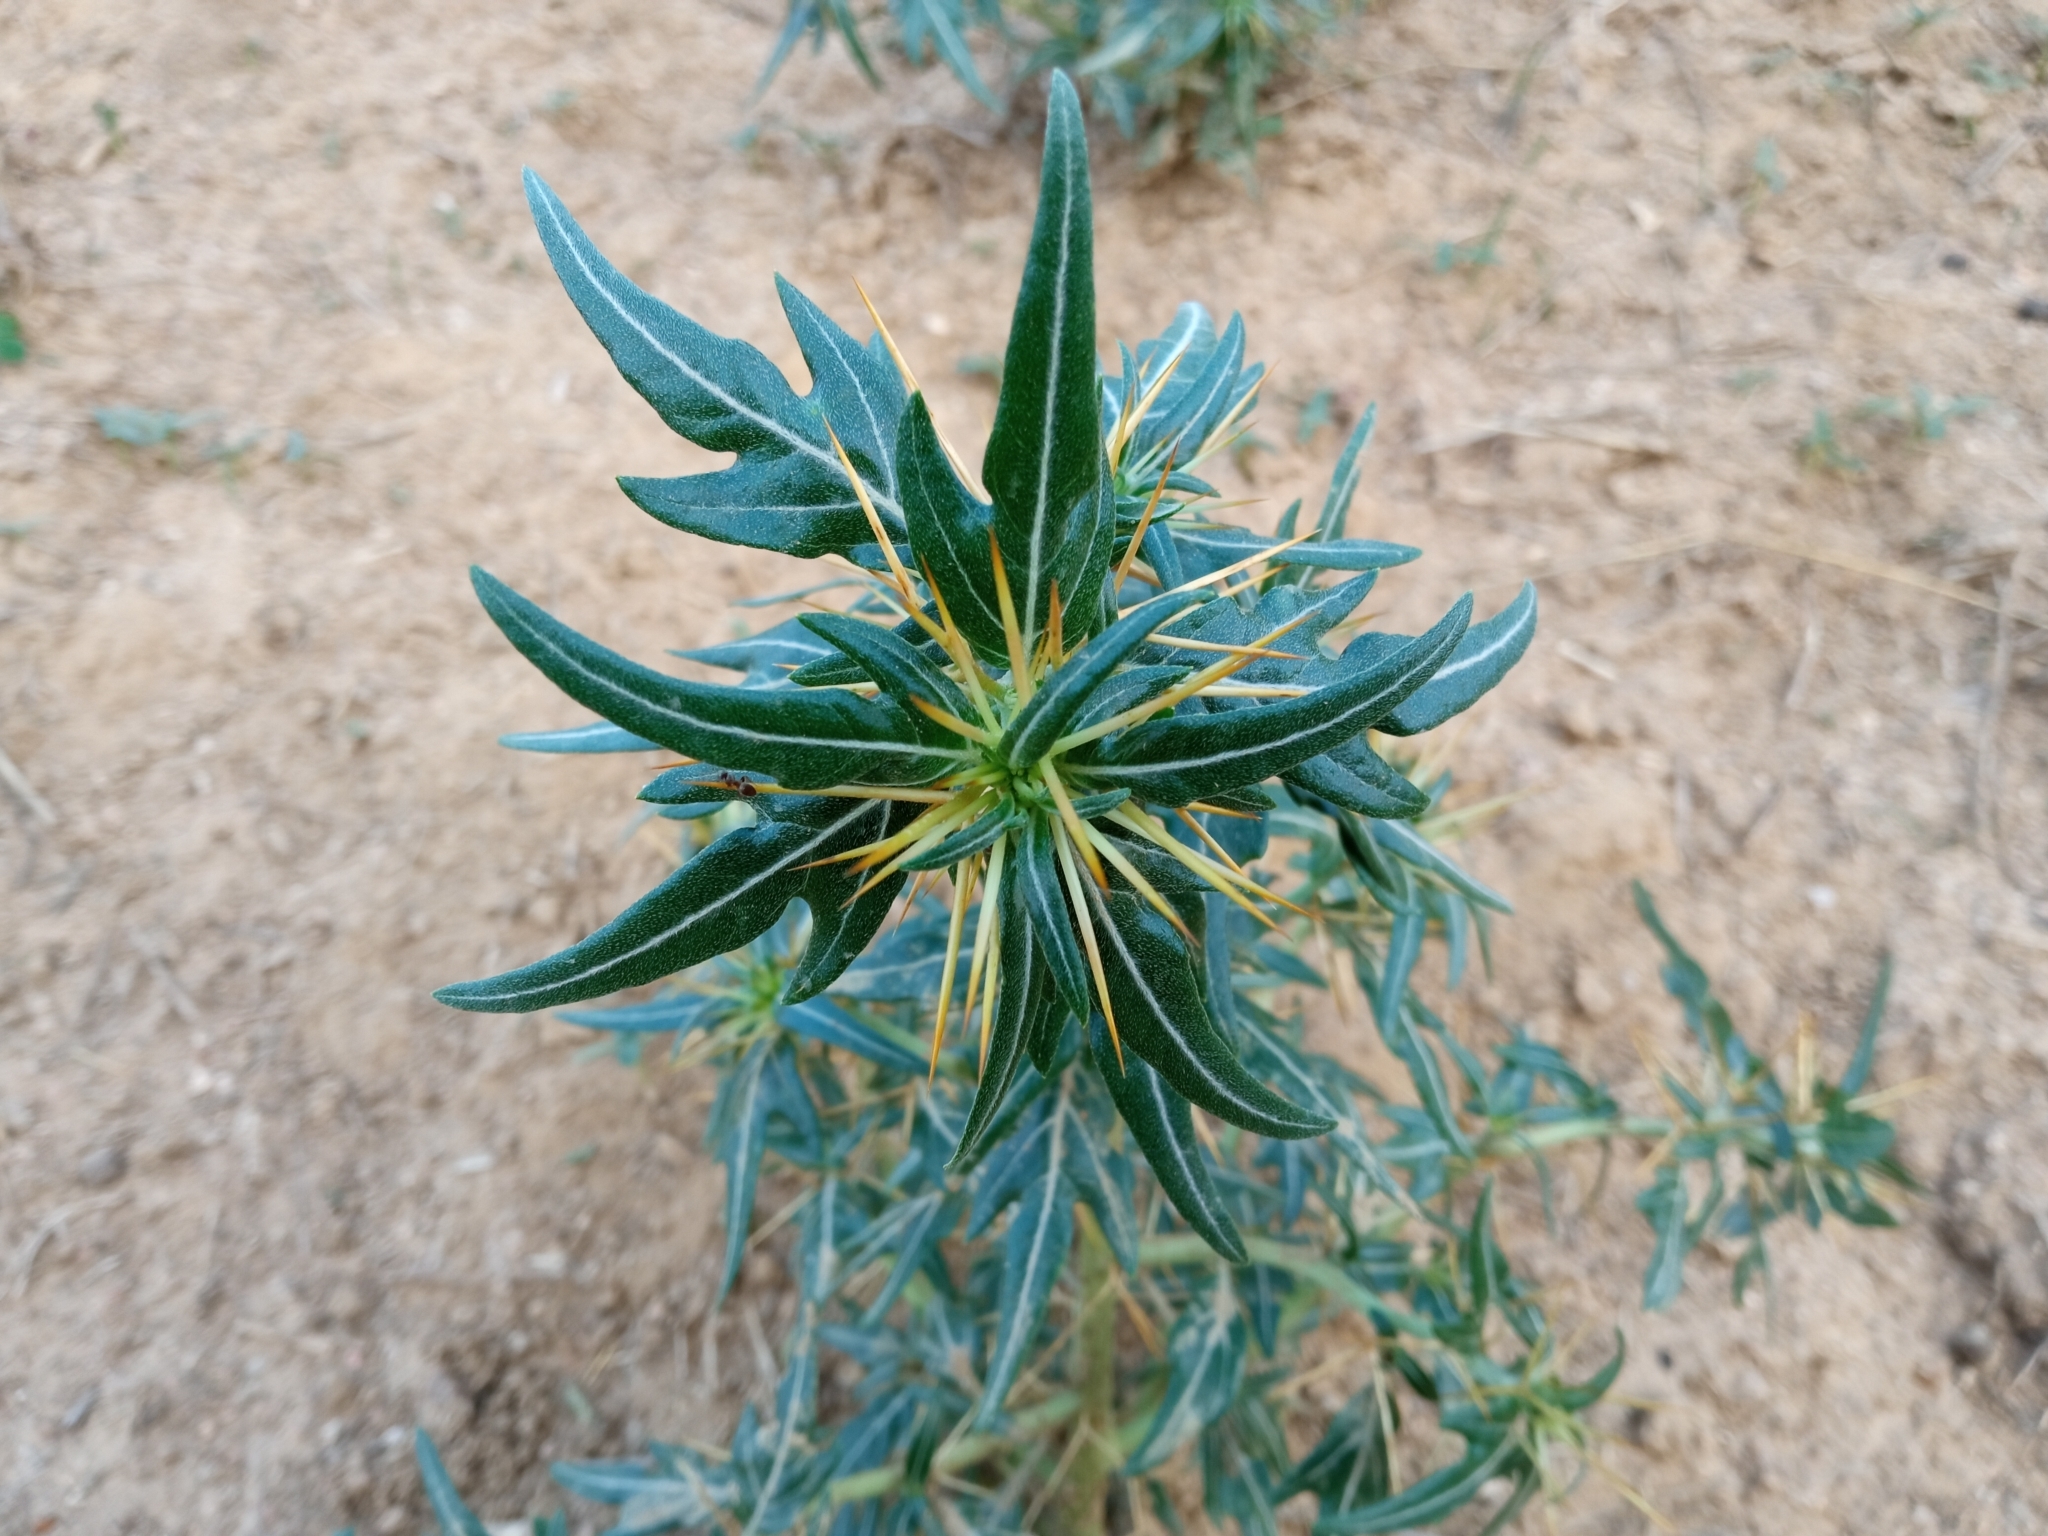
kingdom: Plantae
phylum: Tracheophyta
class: Magnoliopsida
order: Asterales
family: Asteraceae
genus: Xanthium
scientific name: Xanthium spinosum
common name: Spiny cocklebur
